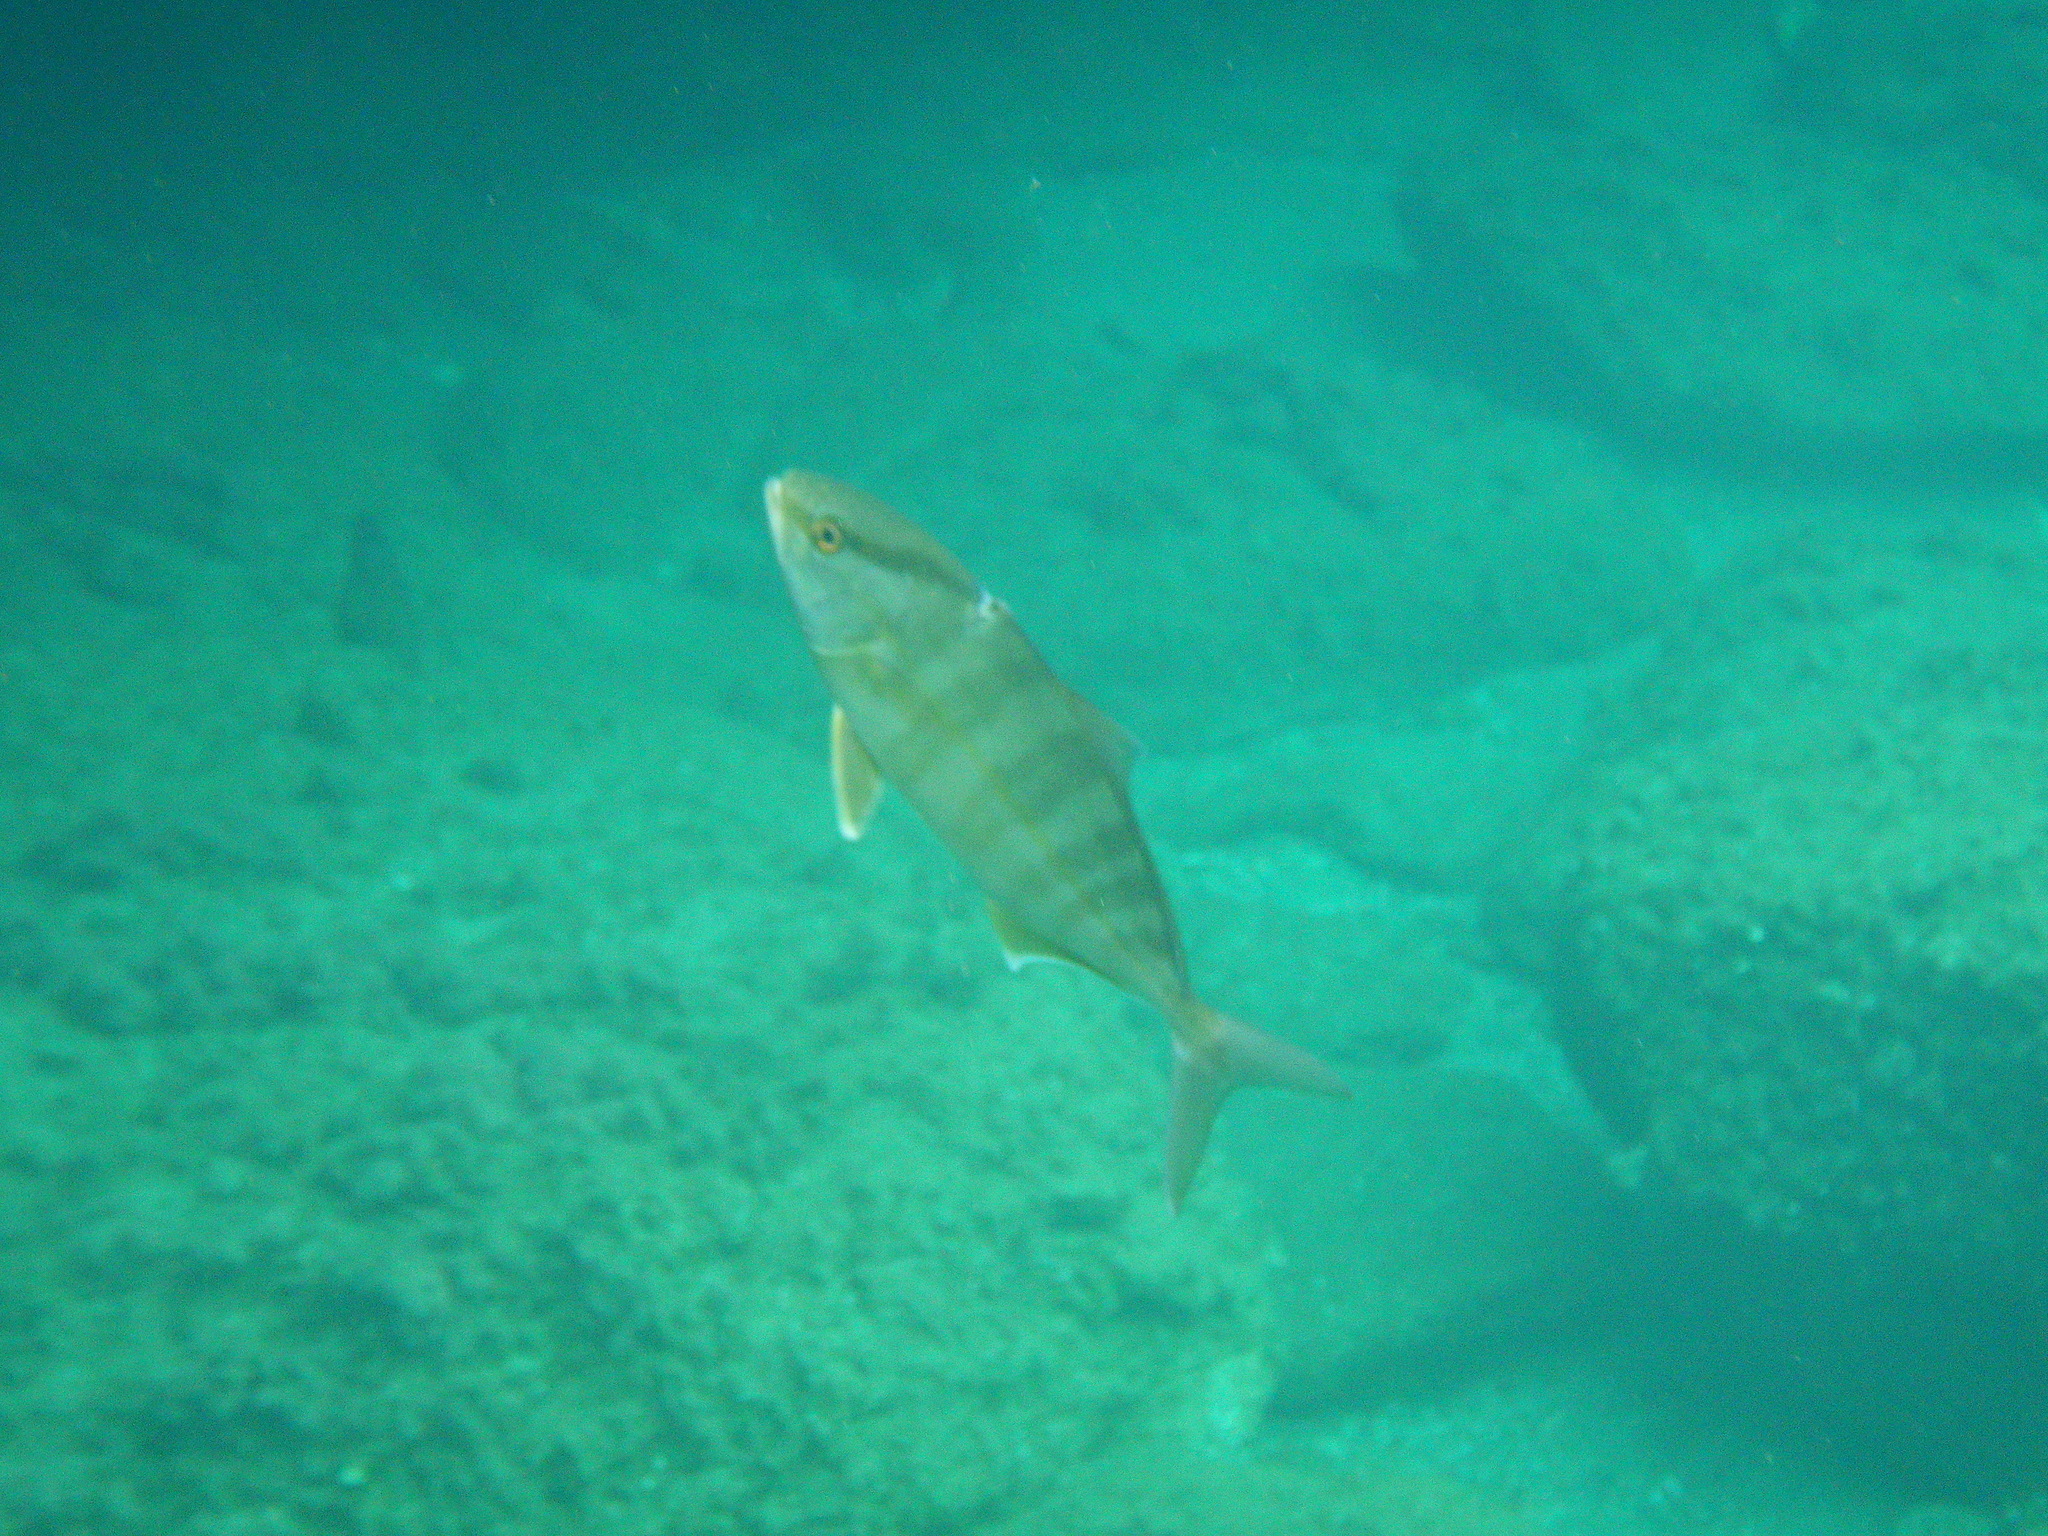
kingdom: Animalia
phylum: Chordata
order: Perciformes
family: Carangidae
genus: Seriola
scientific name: Seriola dumerili
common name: Greater amberjack
